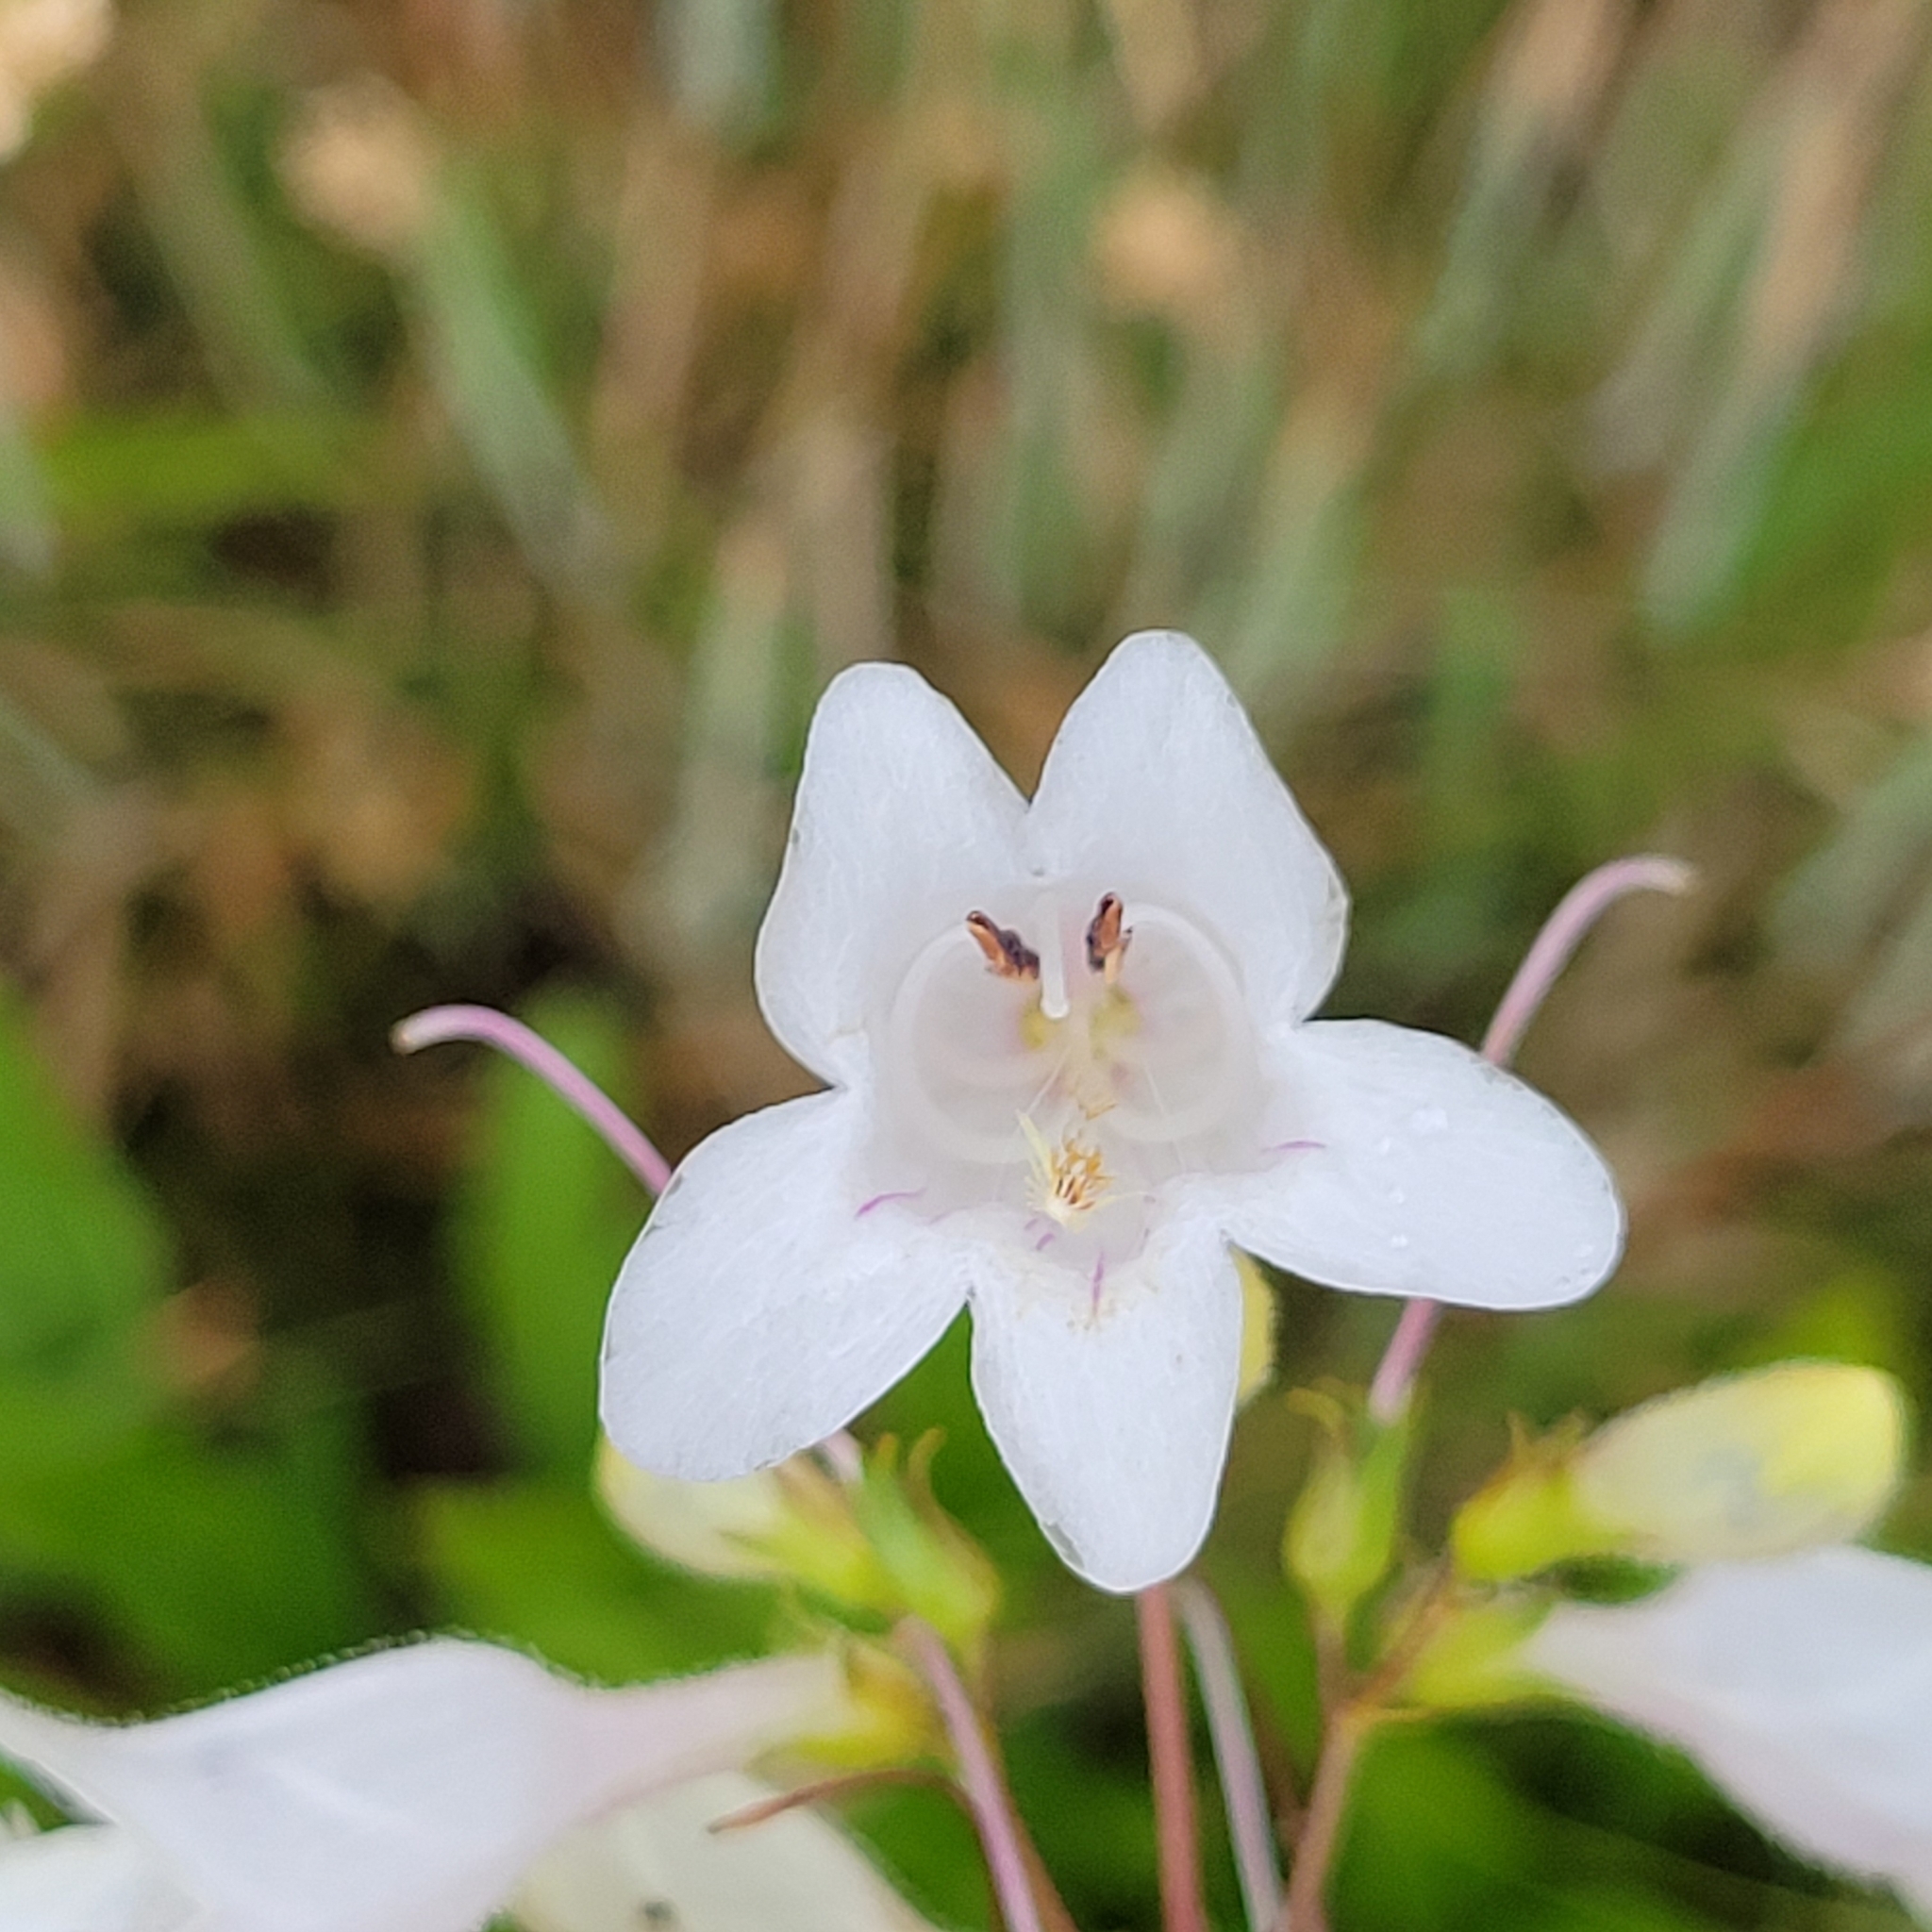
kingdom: Plantae
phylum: Tracheophyta
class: Magnoliopsida
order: Lamiales
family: Plantaginaceae
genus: Penstemon
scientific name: Penstemon digitalis
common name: Foxglove beardtongue
